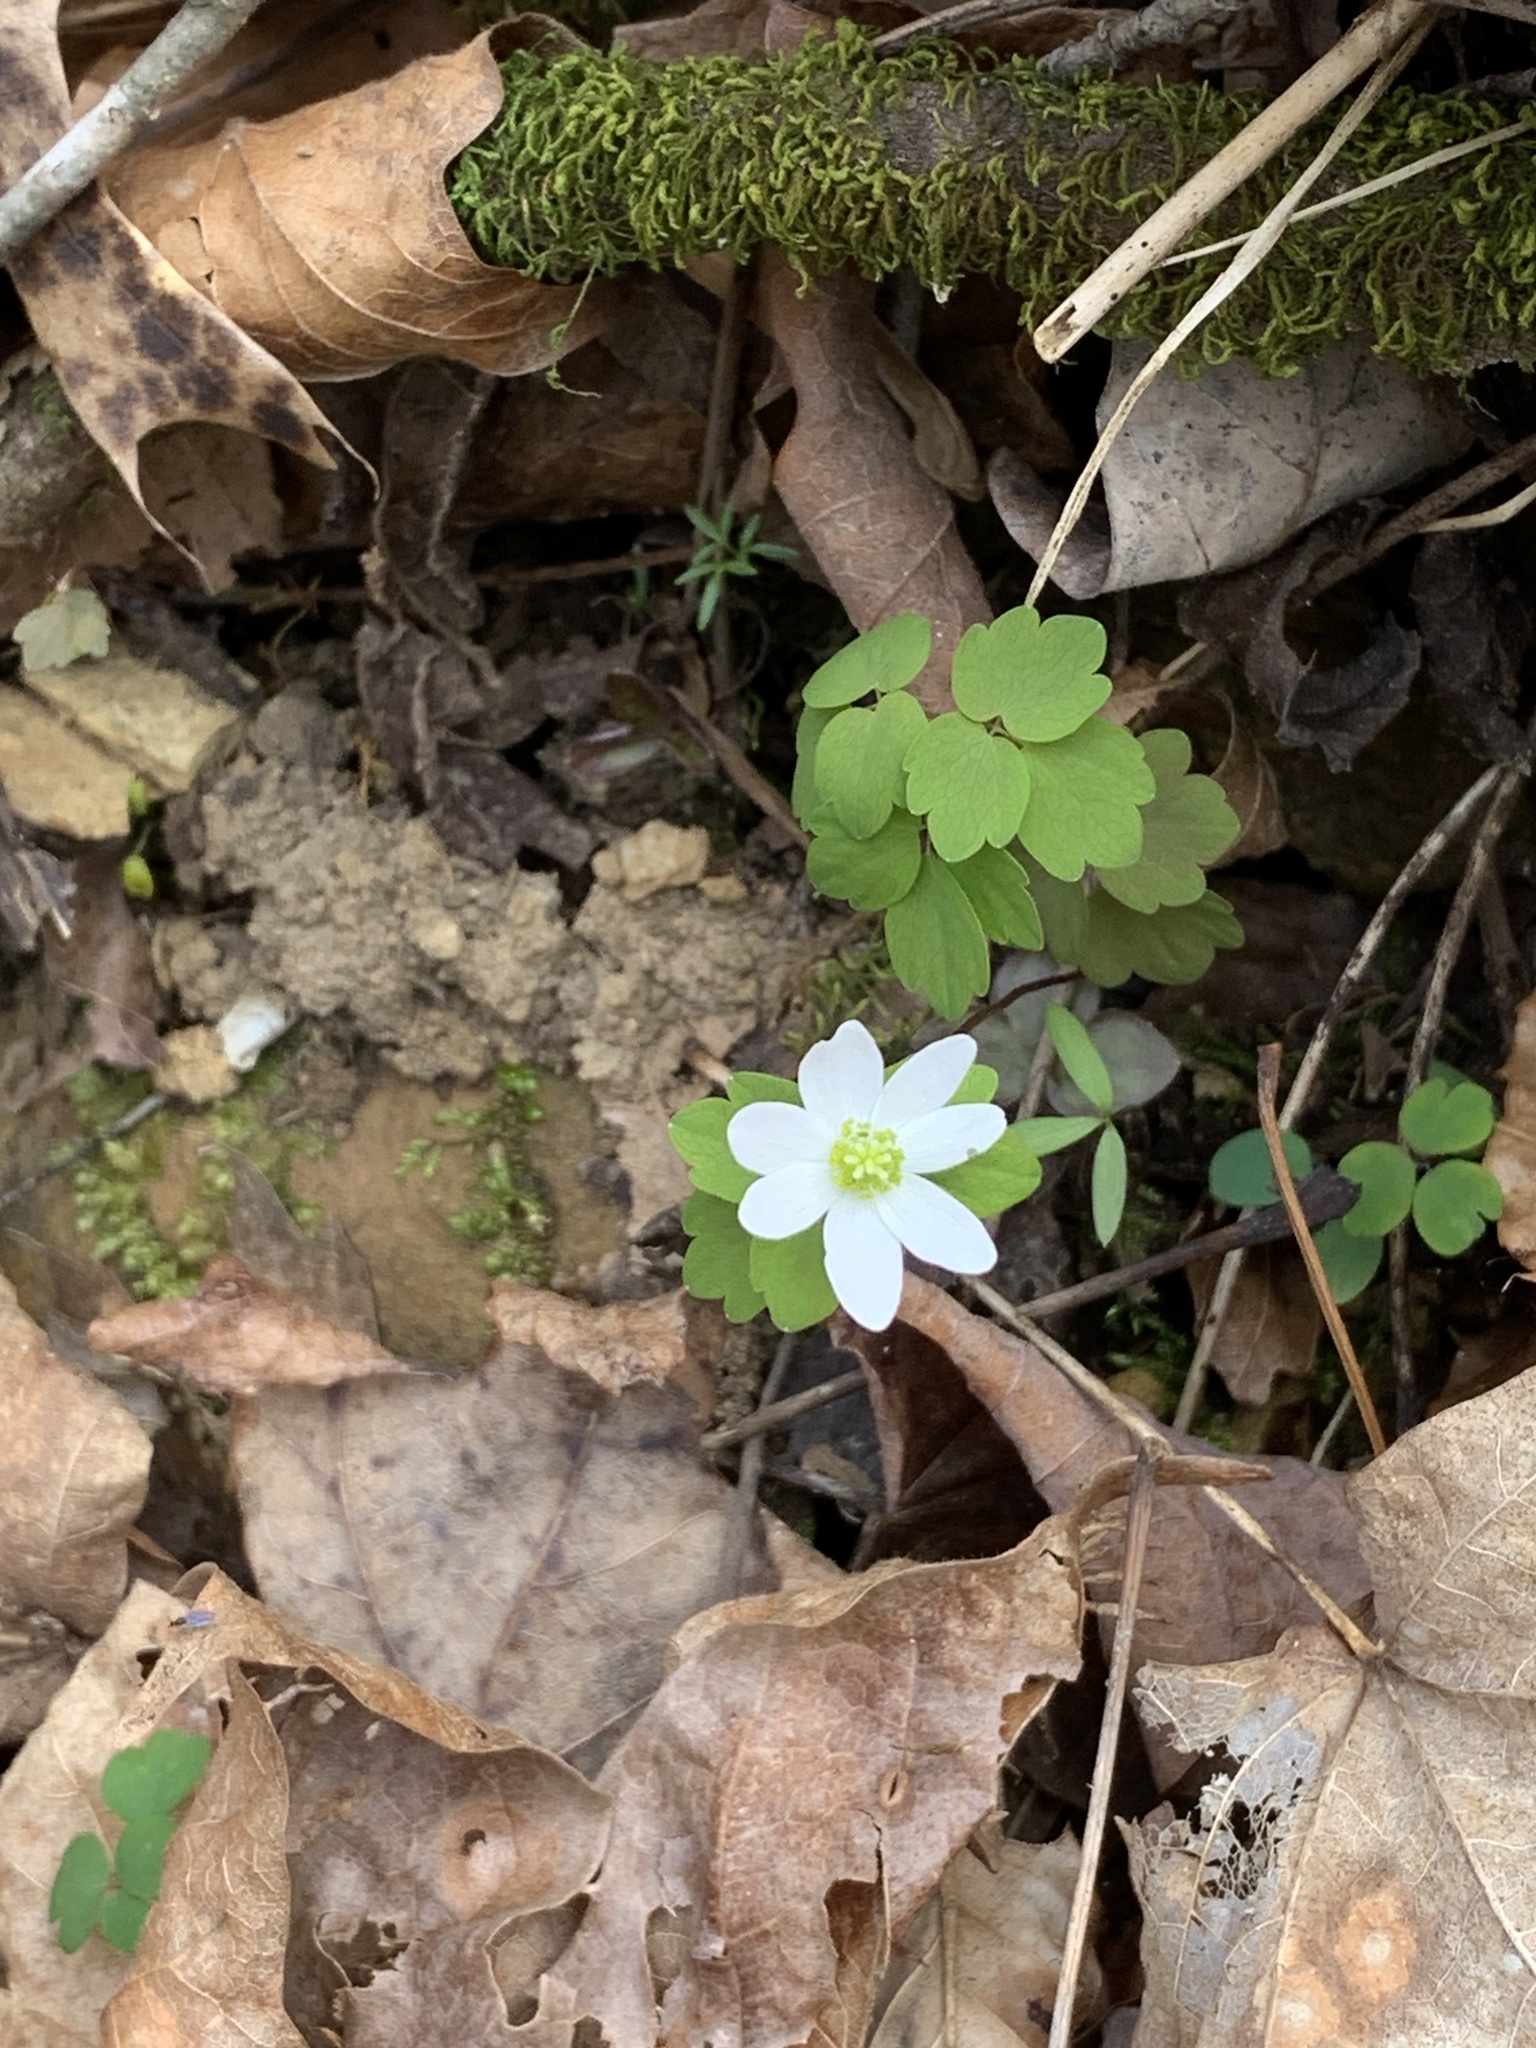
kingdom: Plantae
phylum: Tracheophyta
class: Magnoliopsida
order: Ranunculales
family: Ranunculaceae
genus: Thalictrum
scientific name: Thalictrum thalictroides
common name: Rue-anemone
